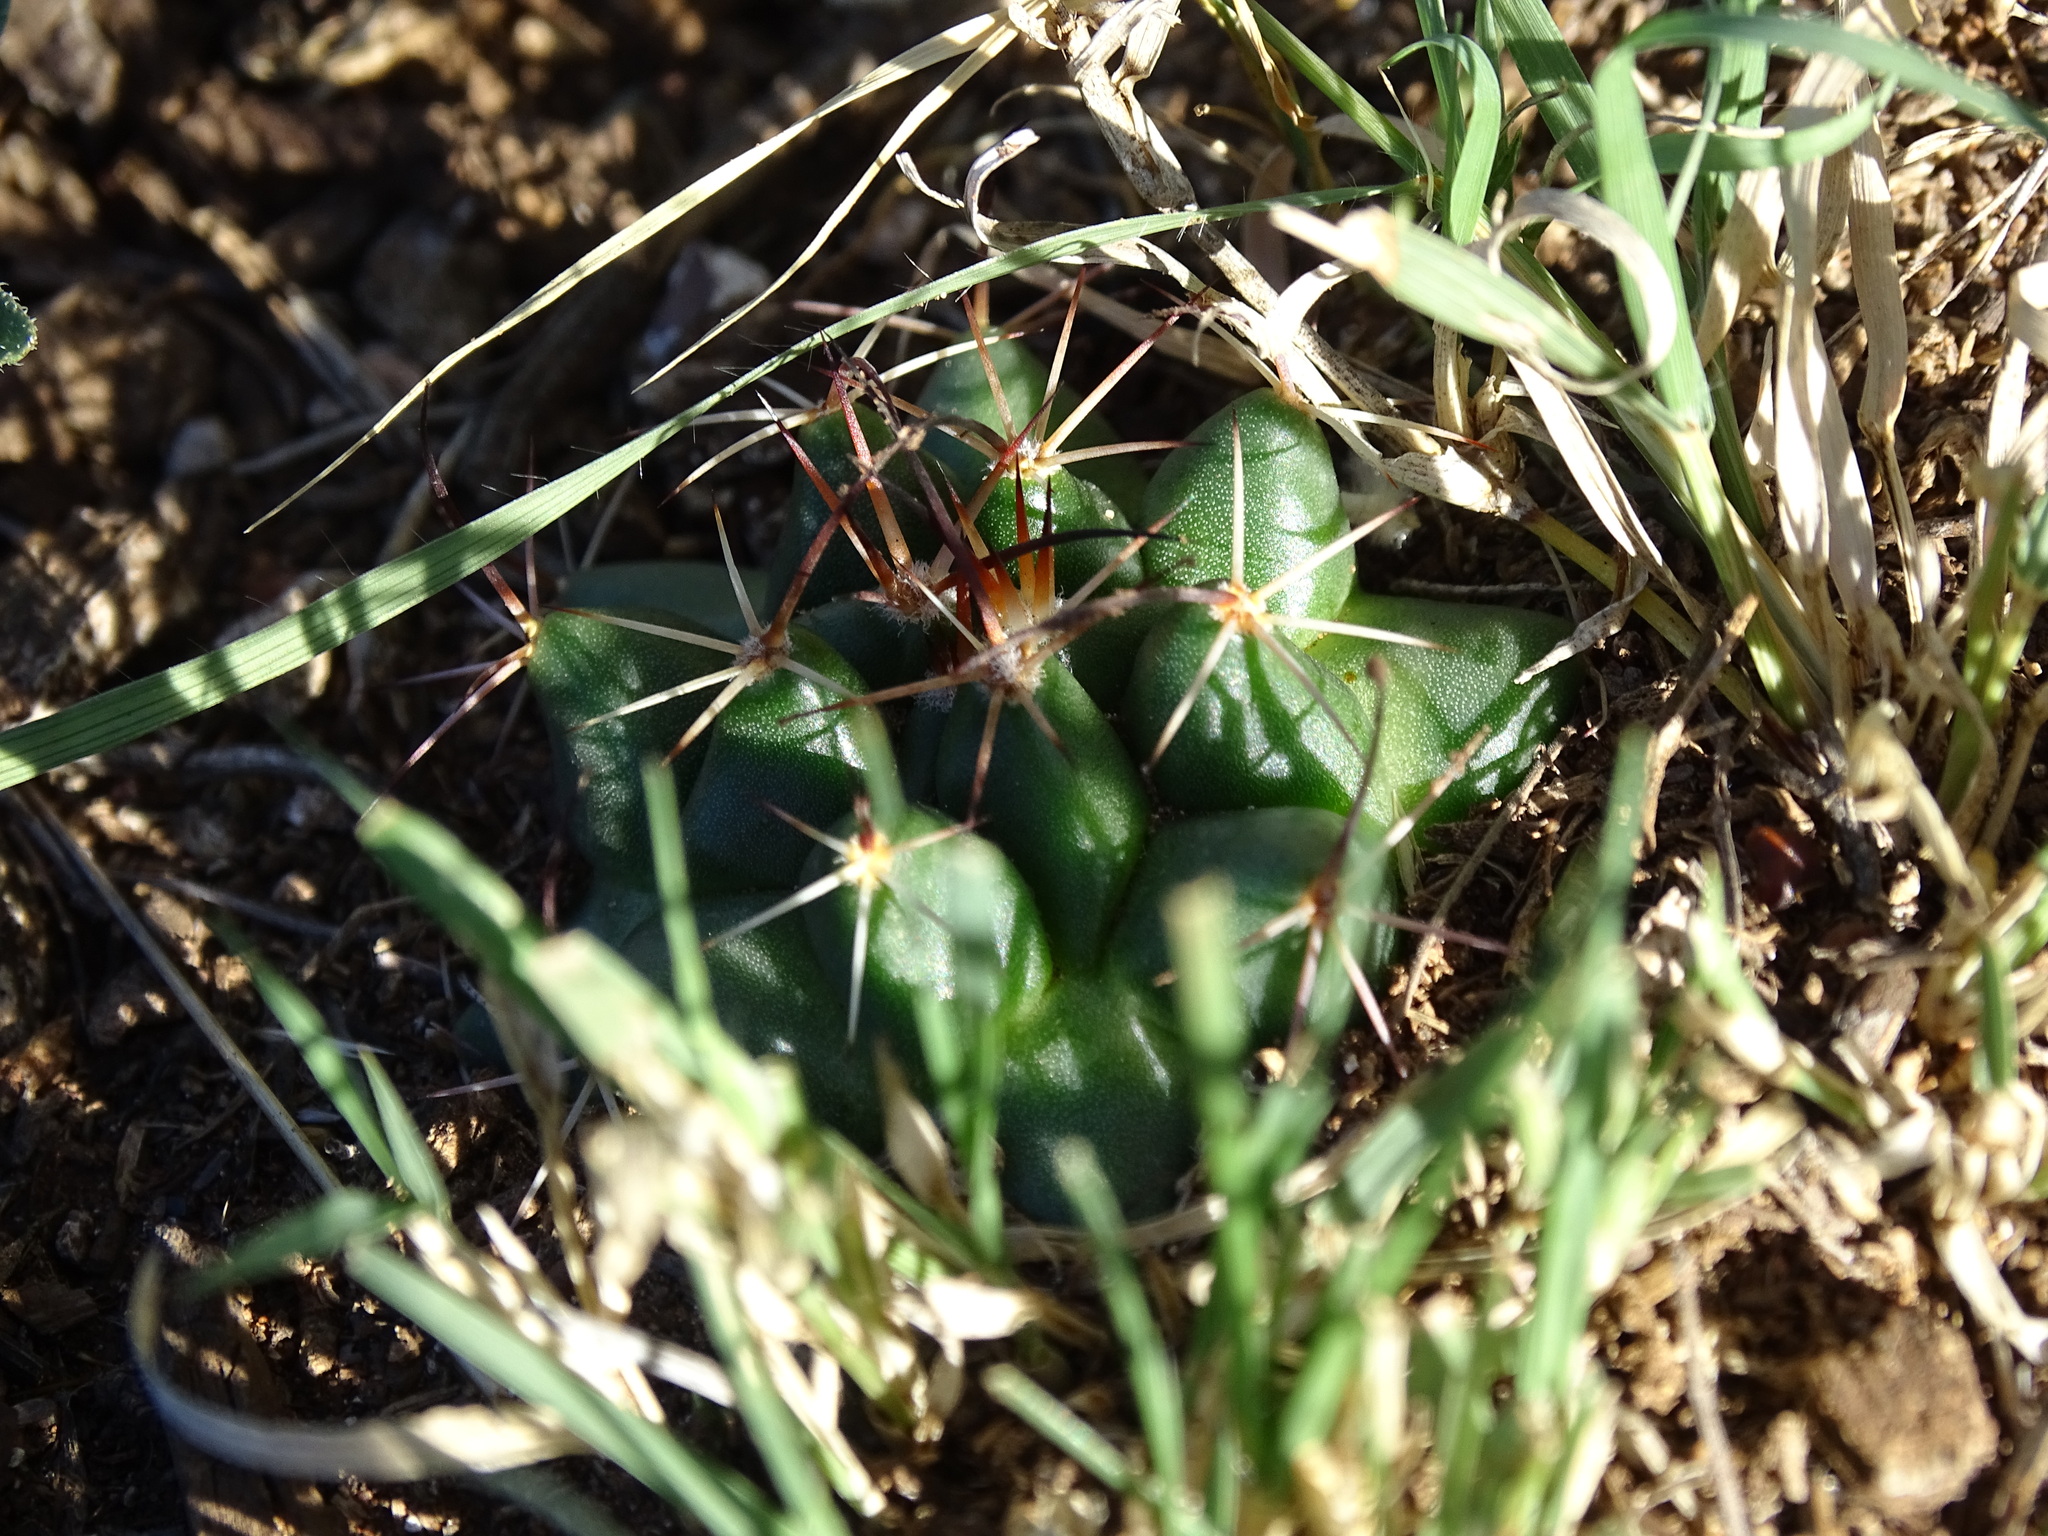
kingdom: Plantae
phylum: Tracheophyta
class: Magnoliopsida
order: Caryophyllales
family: Cactaceae
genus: Mammillaria
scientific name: Mammillaria uncinata
